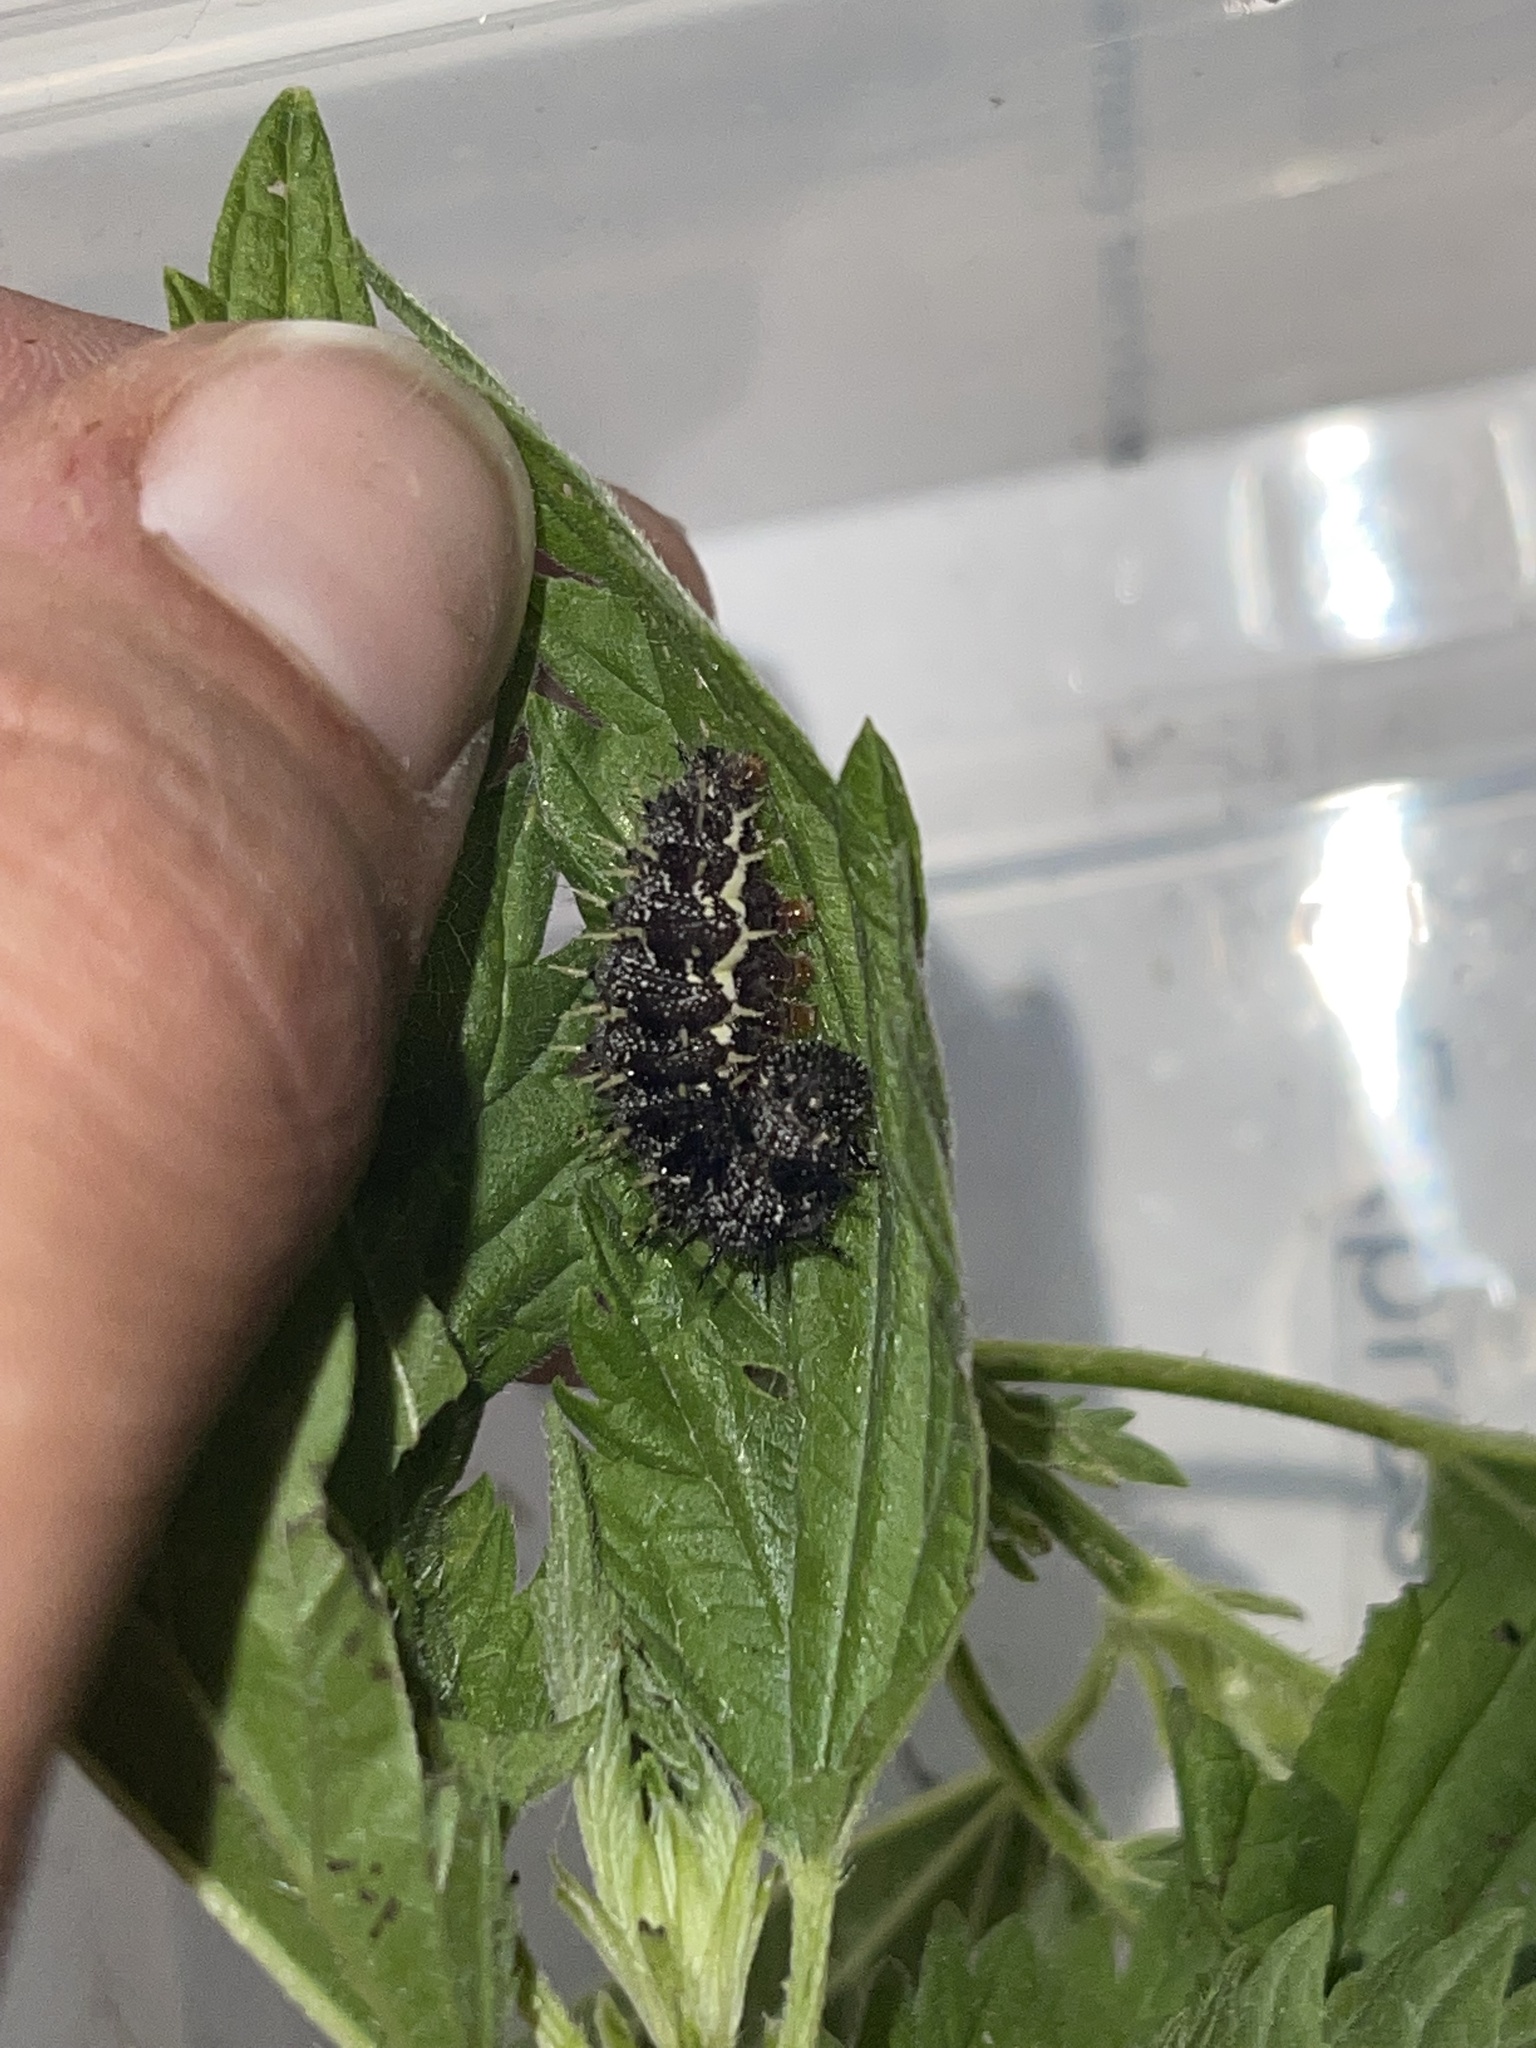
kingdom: Animalia
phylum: Arthropoda
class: Insecta
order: Lepidoptera
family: Nymphalidae
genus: Vanessa
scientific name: Vanessa atalanta
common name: Red admiral
